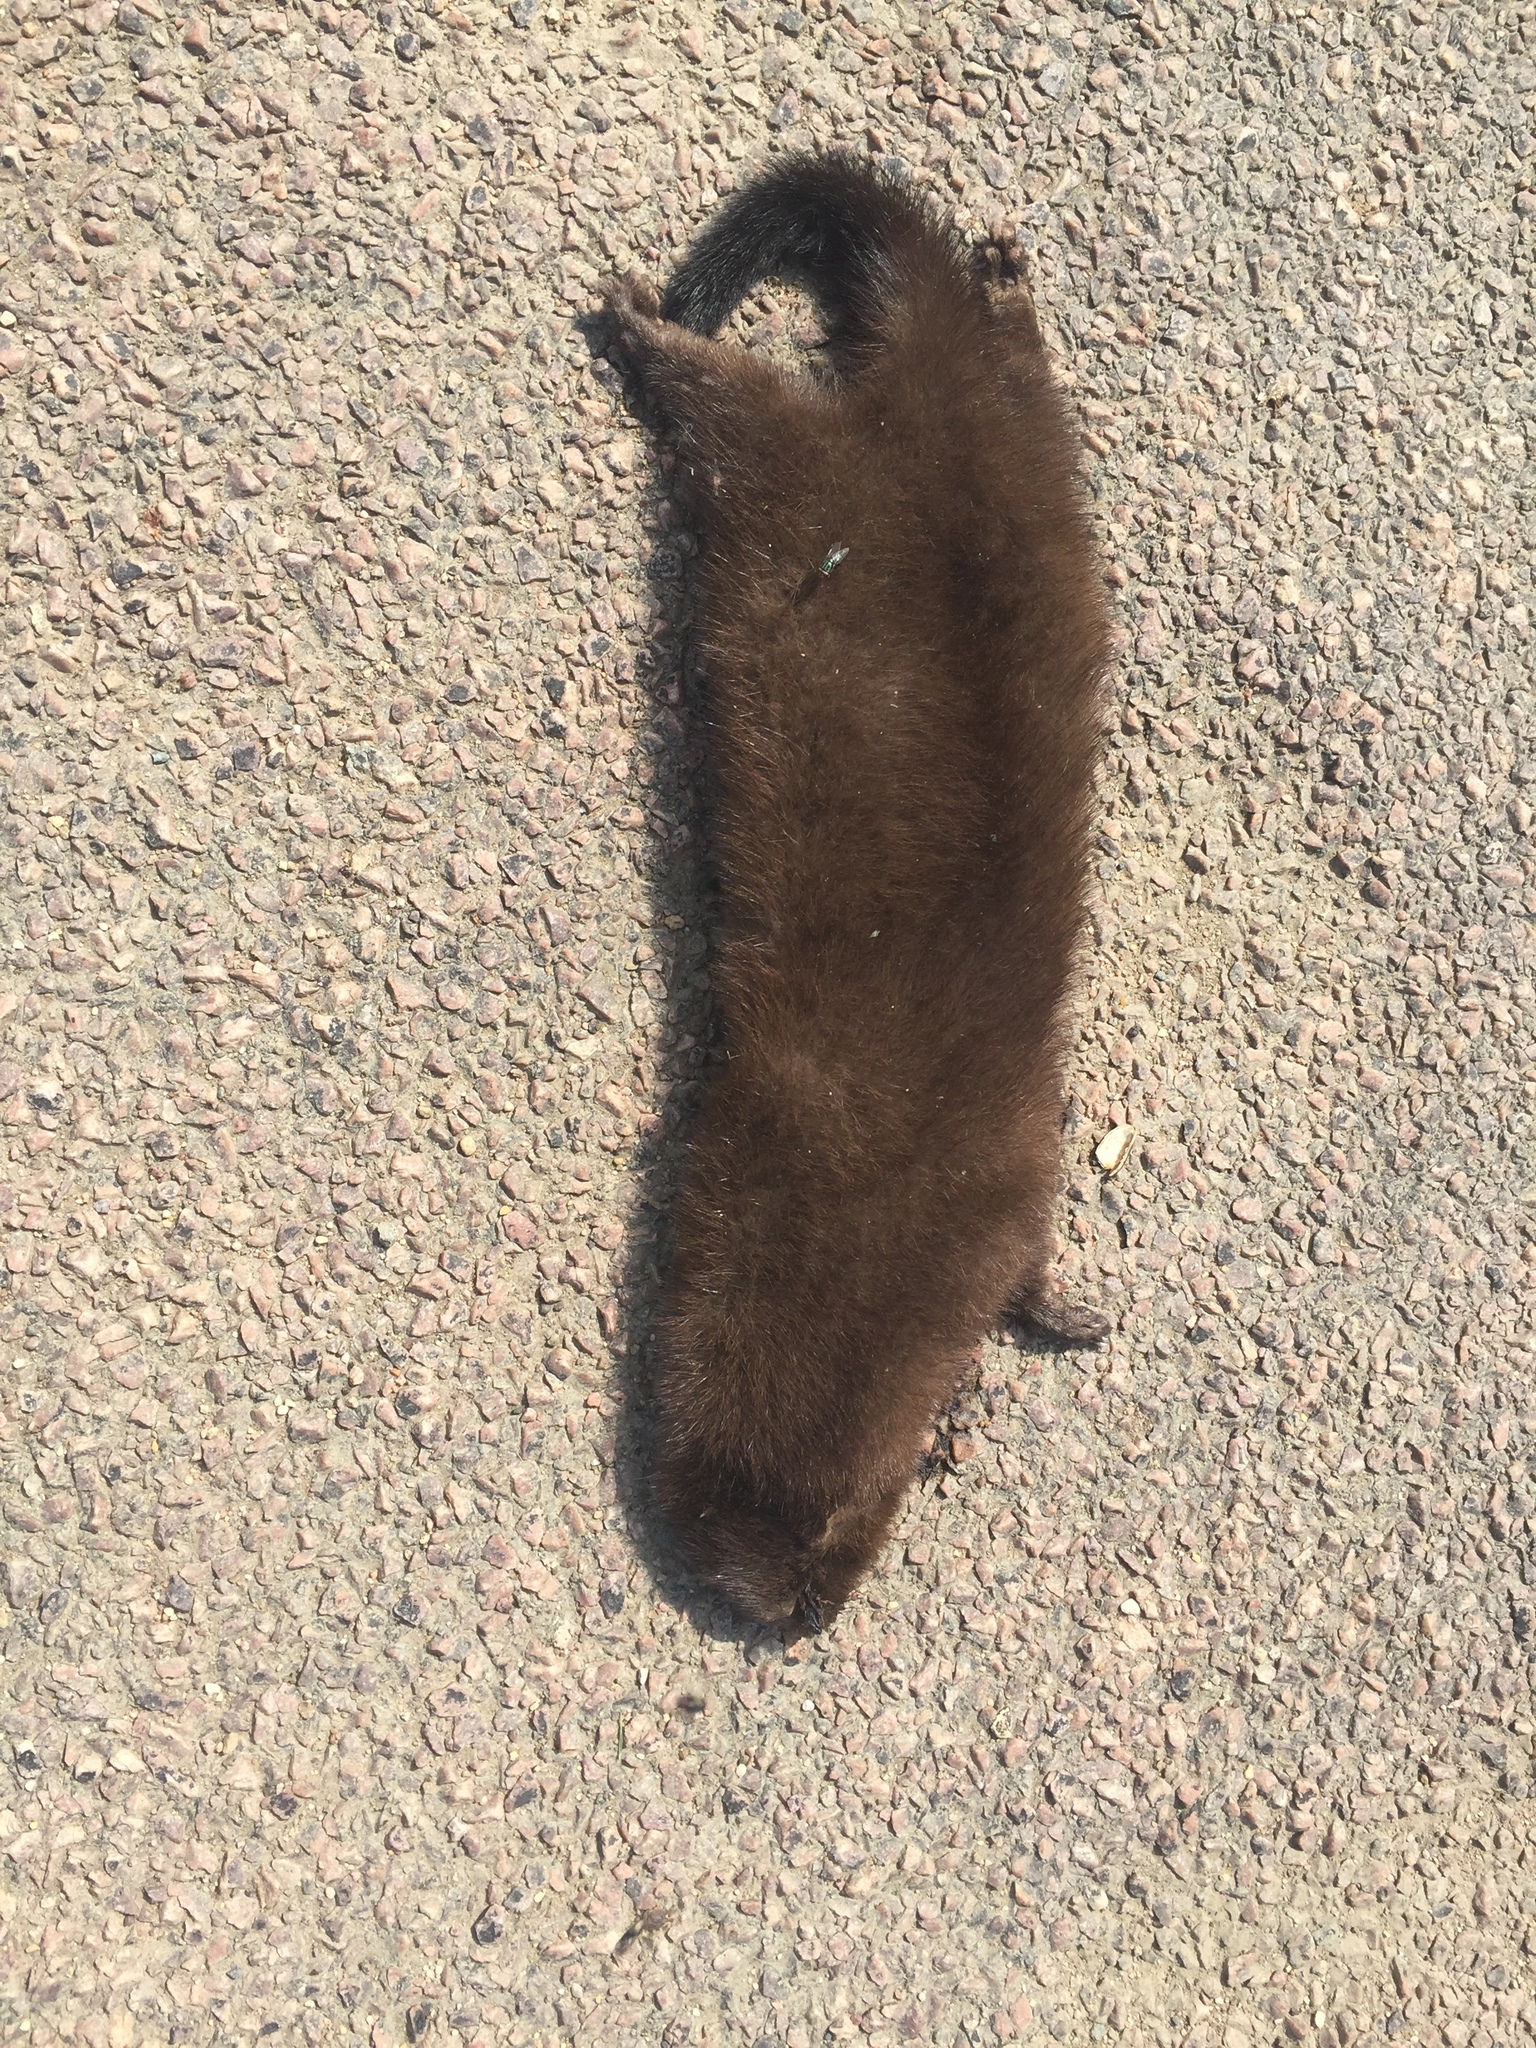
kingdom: Animalia
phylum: Chordata
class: Mammalia
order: Carnivora
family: Mustelidae
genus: Mustela
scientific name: Mustela
